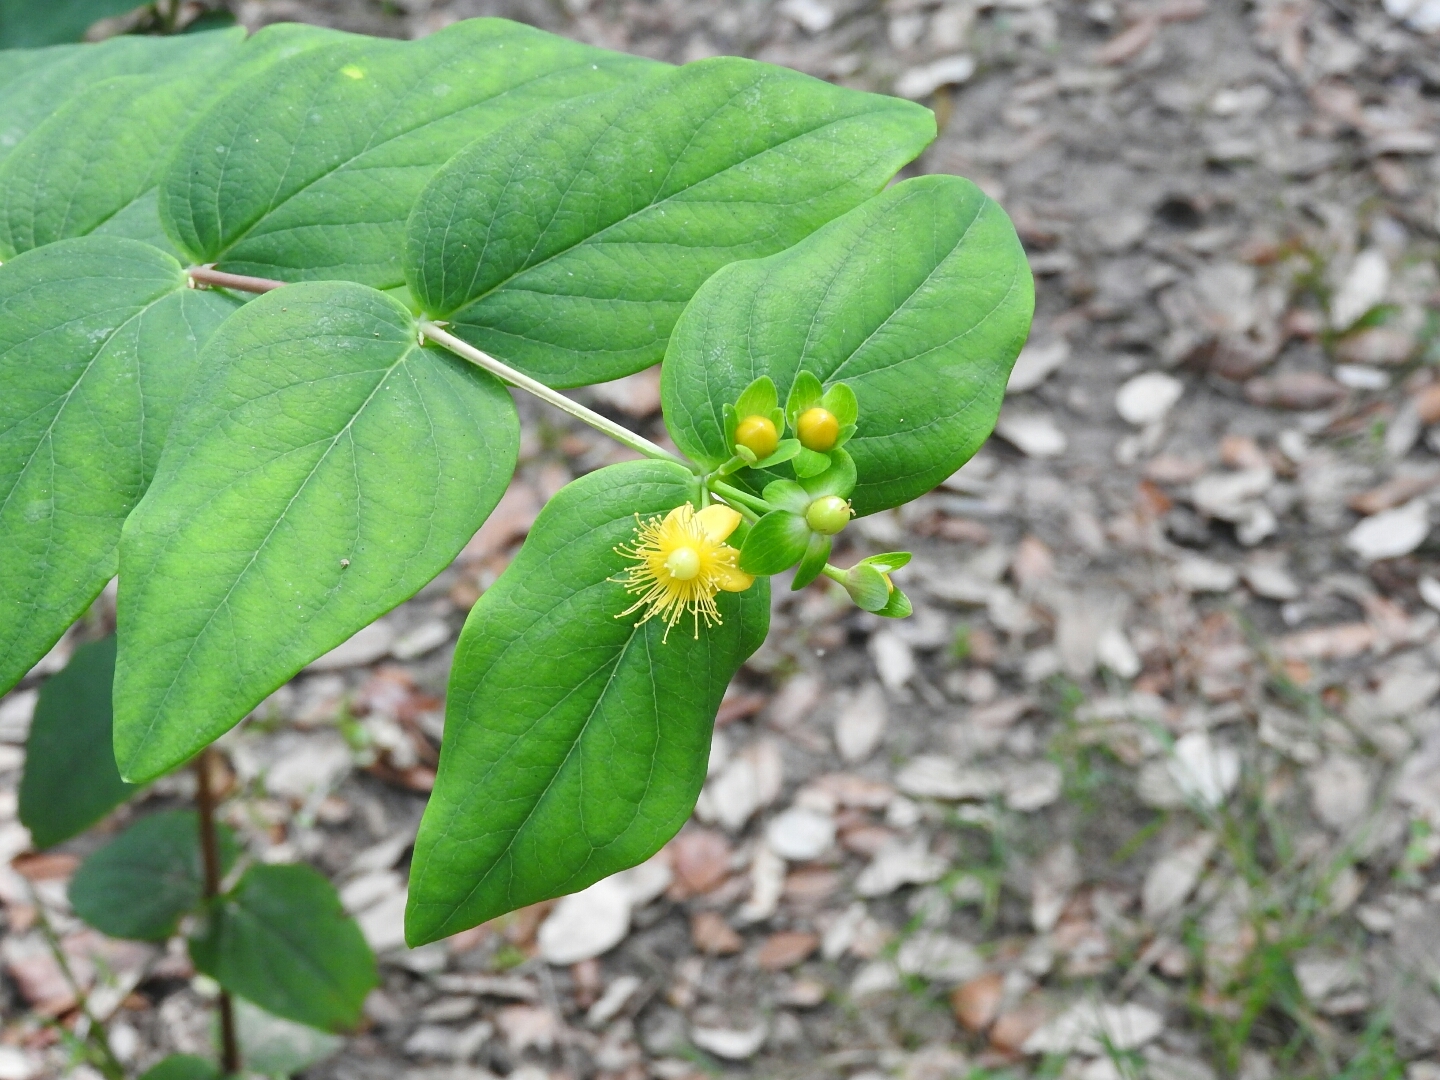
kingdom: Plantae
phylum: Tracheophyta
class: Magnoliopsida
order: Malpighiales
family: Hypericaceae
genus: Hypericum
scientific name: Hypericum androsaemum
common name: Sweet-amber
